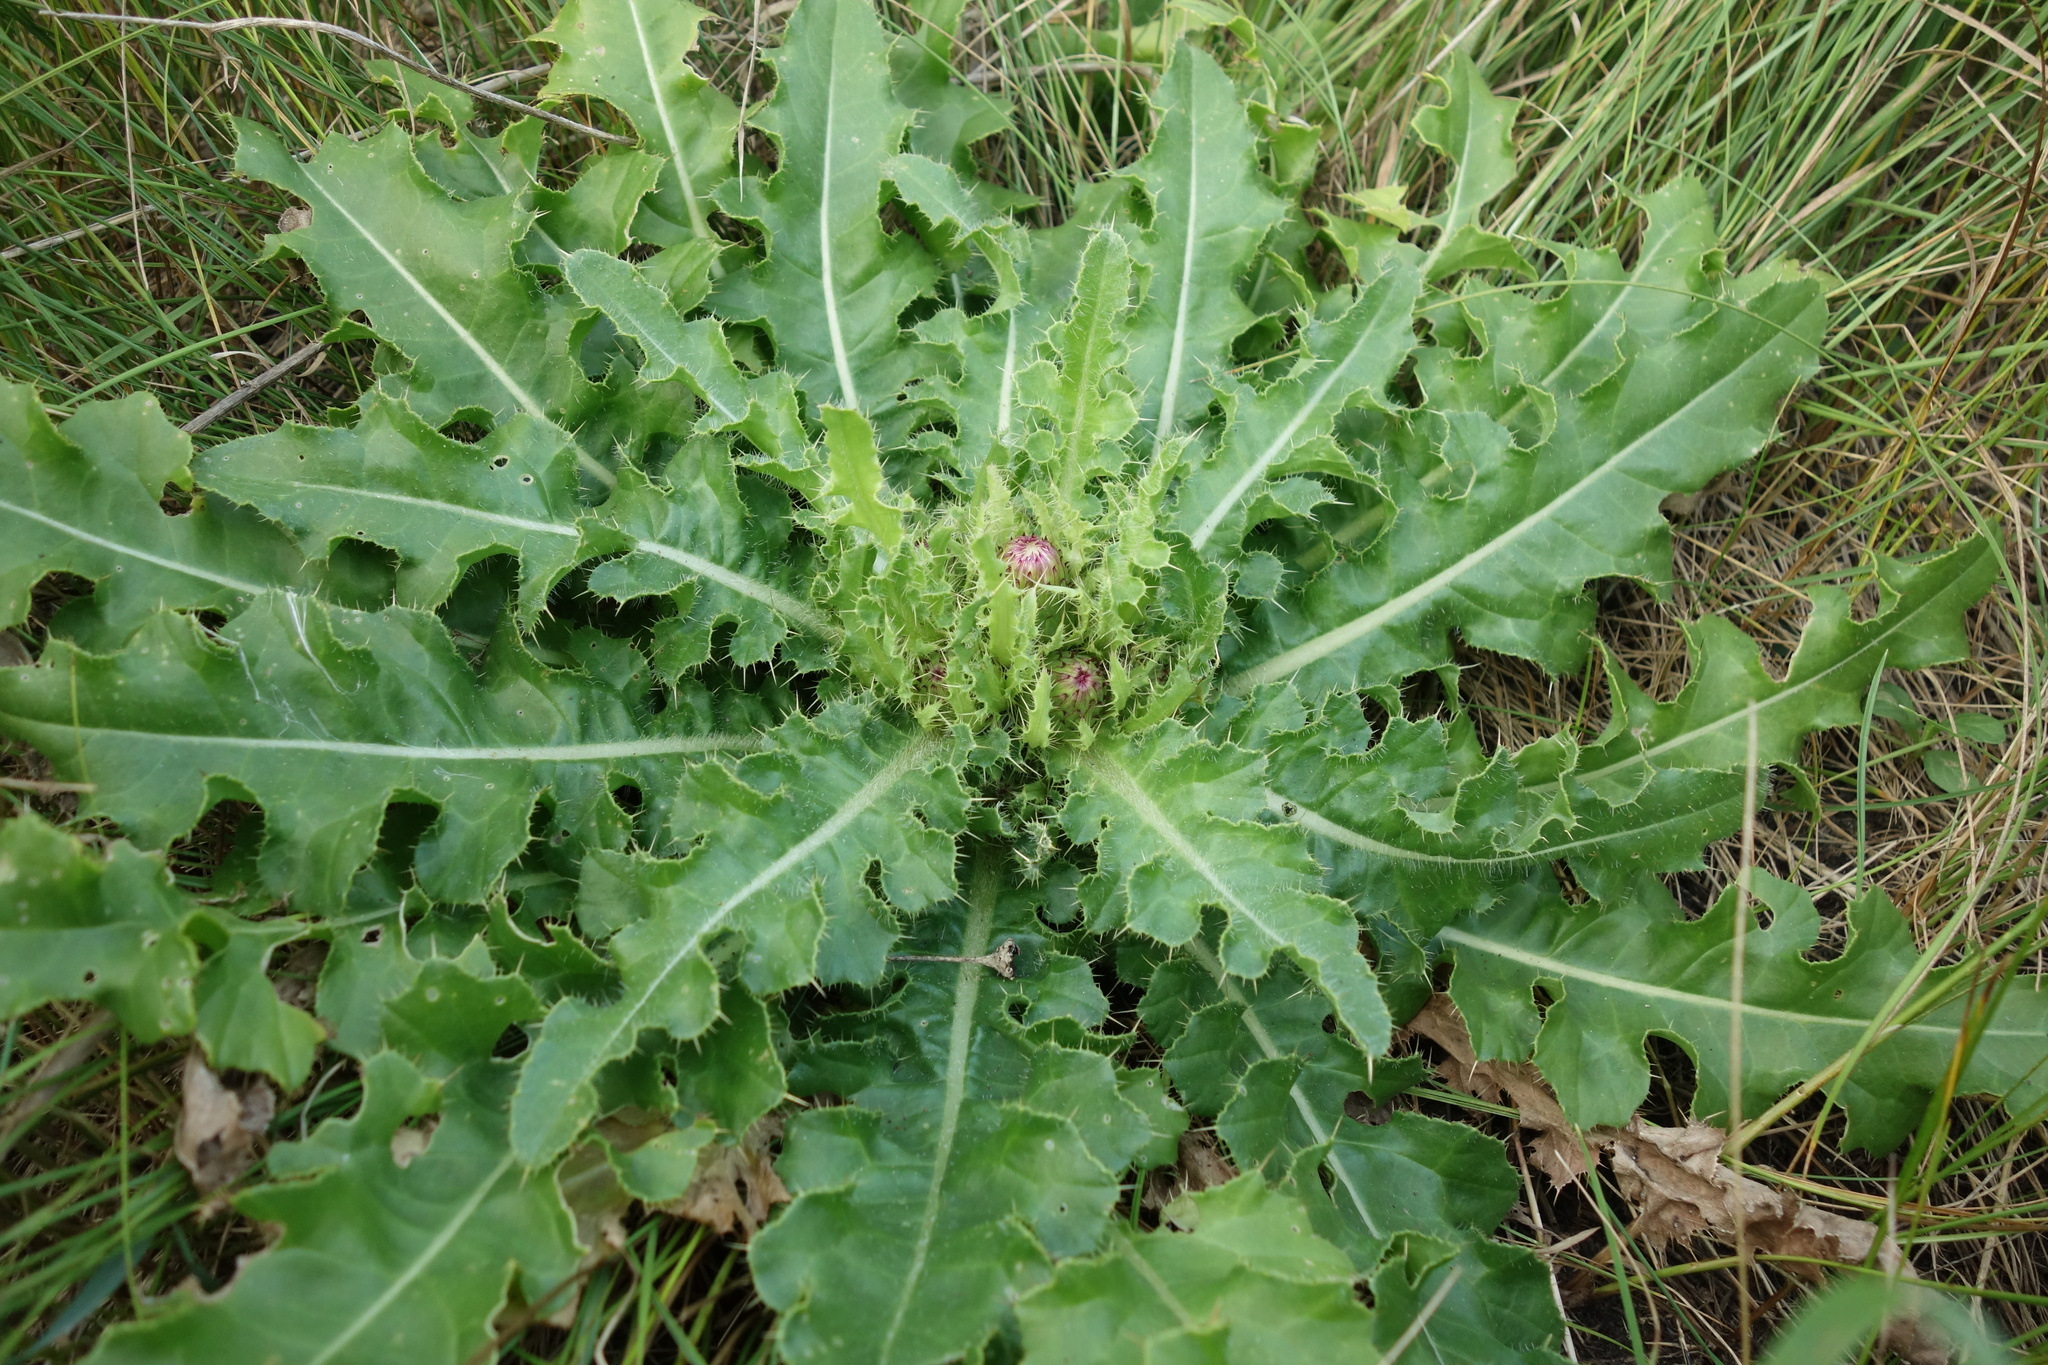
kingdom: Plantae
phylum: Tracheophyta
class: Magnoliopsida
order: Asterales
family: Asteraceae
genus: Cirsium
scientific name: Cirsium esculentum
